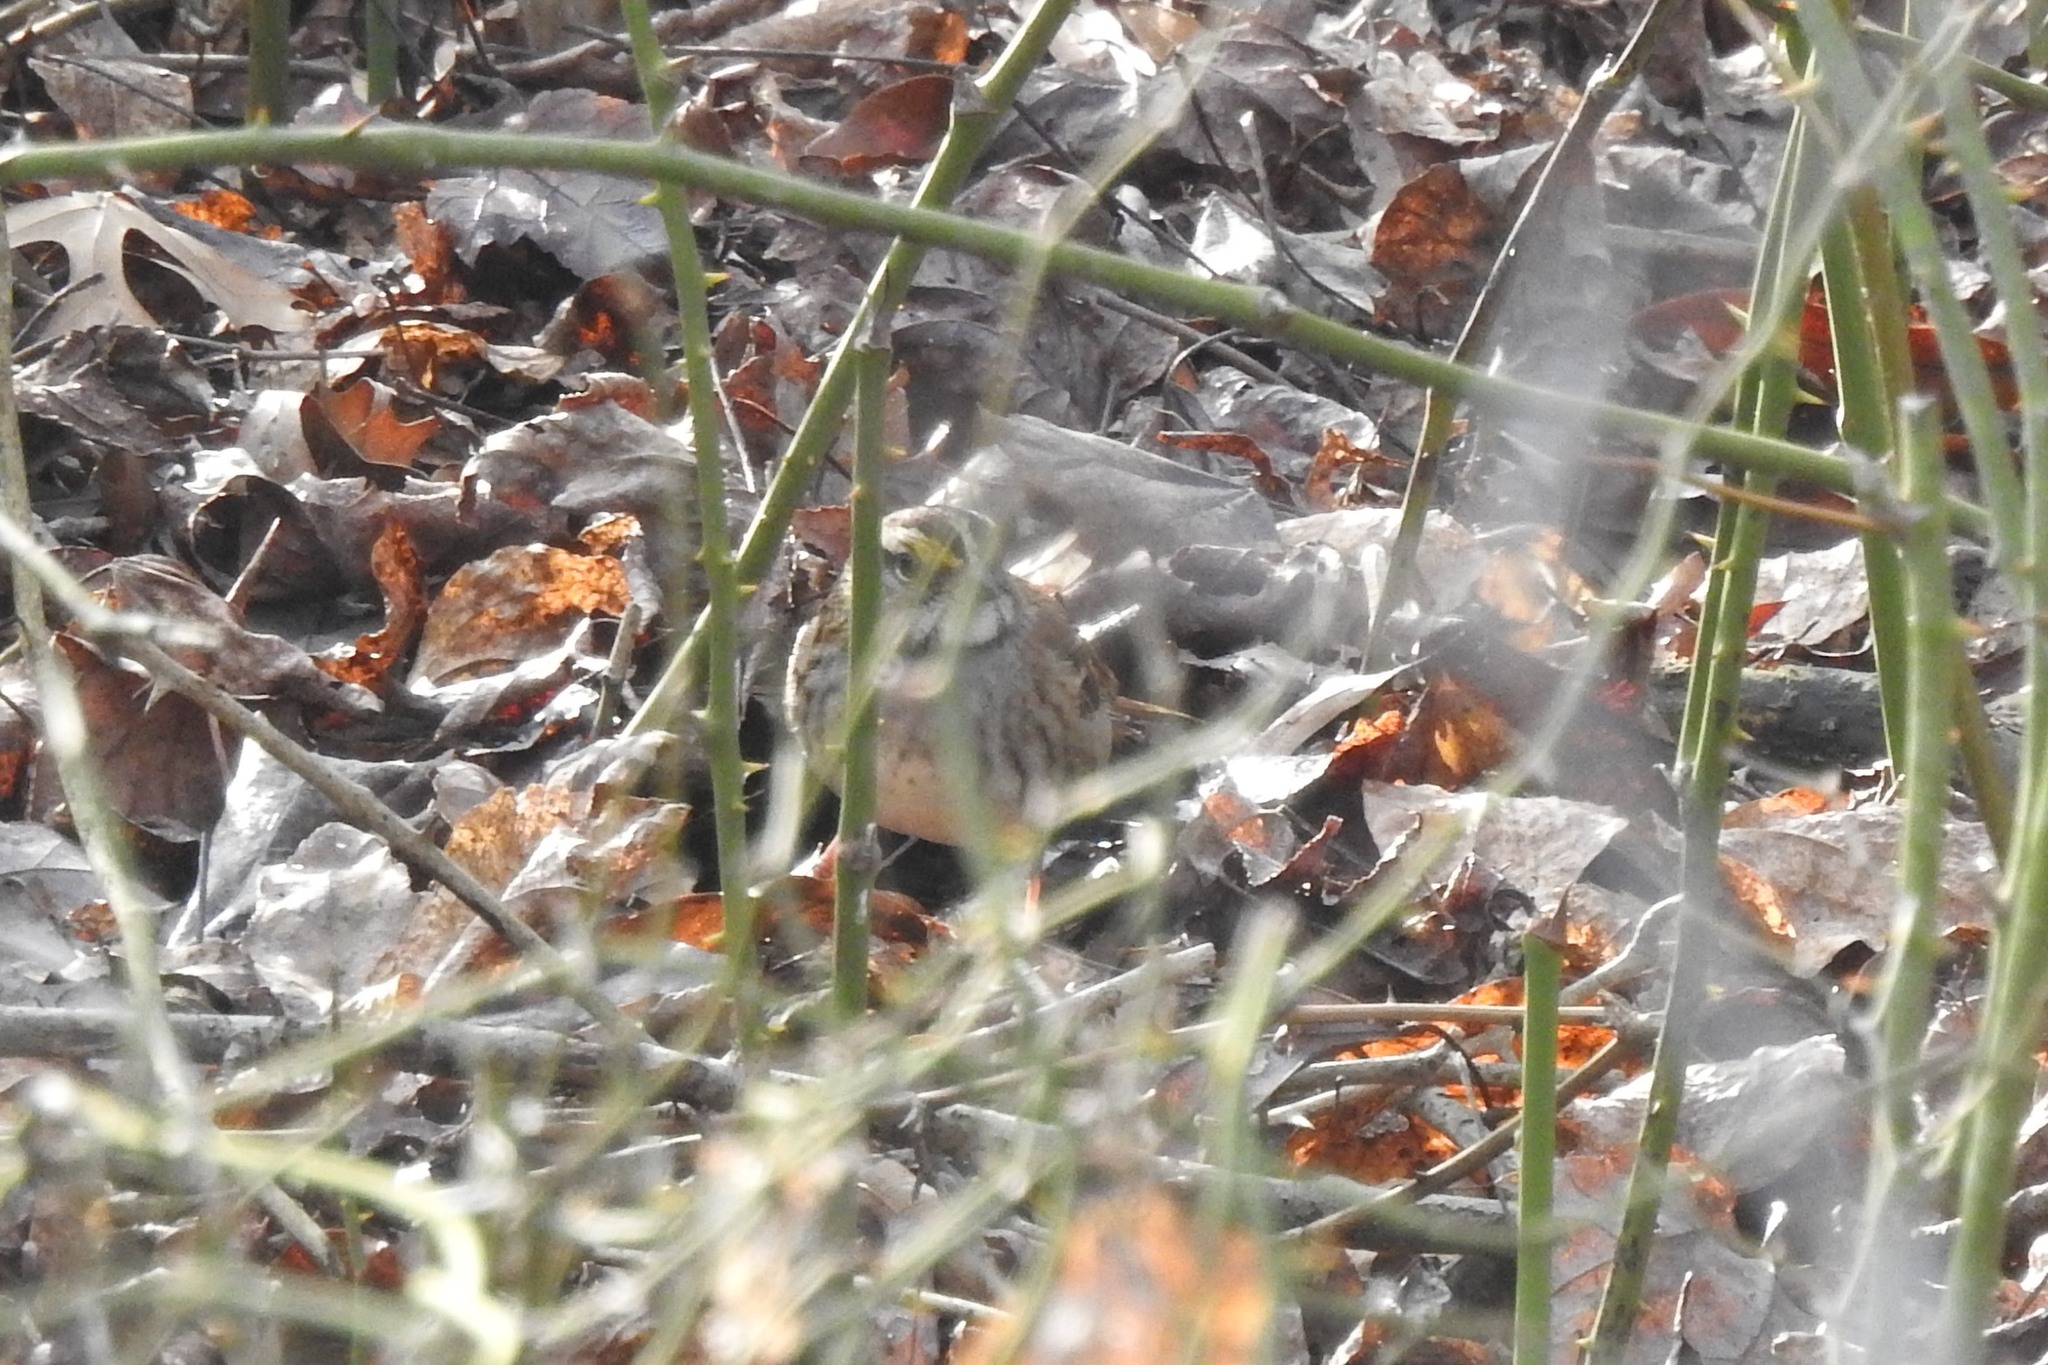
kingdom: Animalia
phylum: Chordata
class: Aves
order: Passeriformes
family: Passerellidae
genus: Zonotrichia
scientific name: Zonotrichia albicollis
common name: White-throated sparrow
